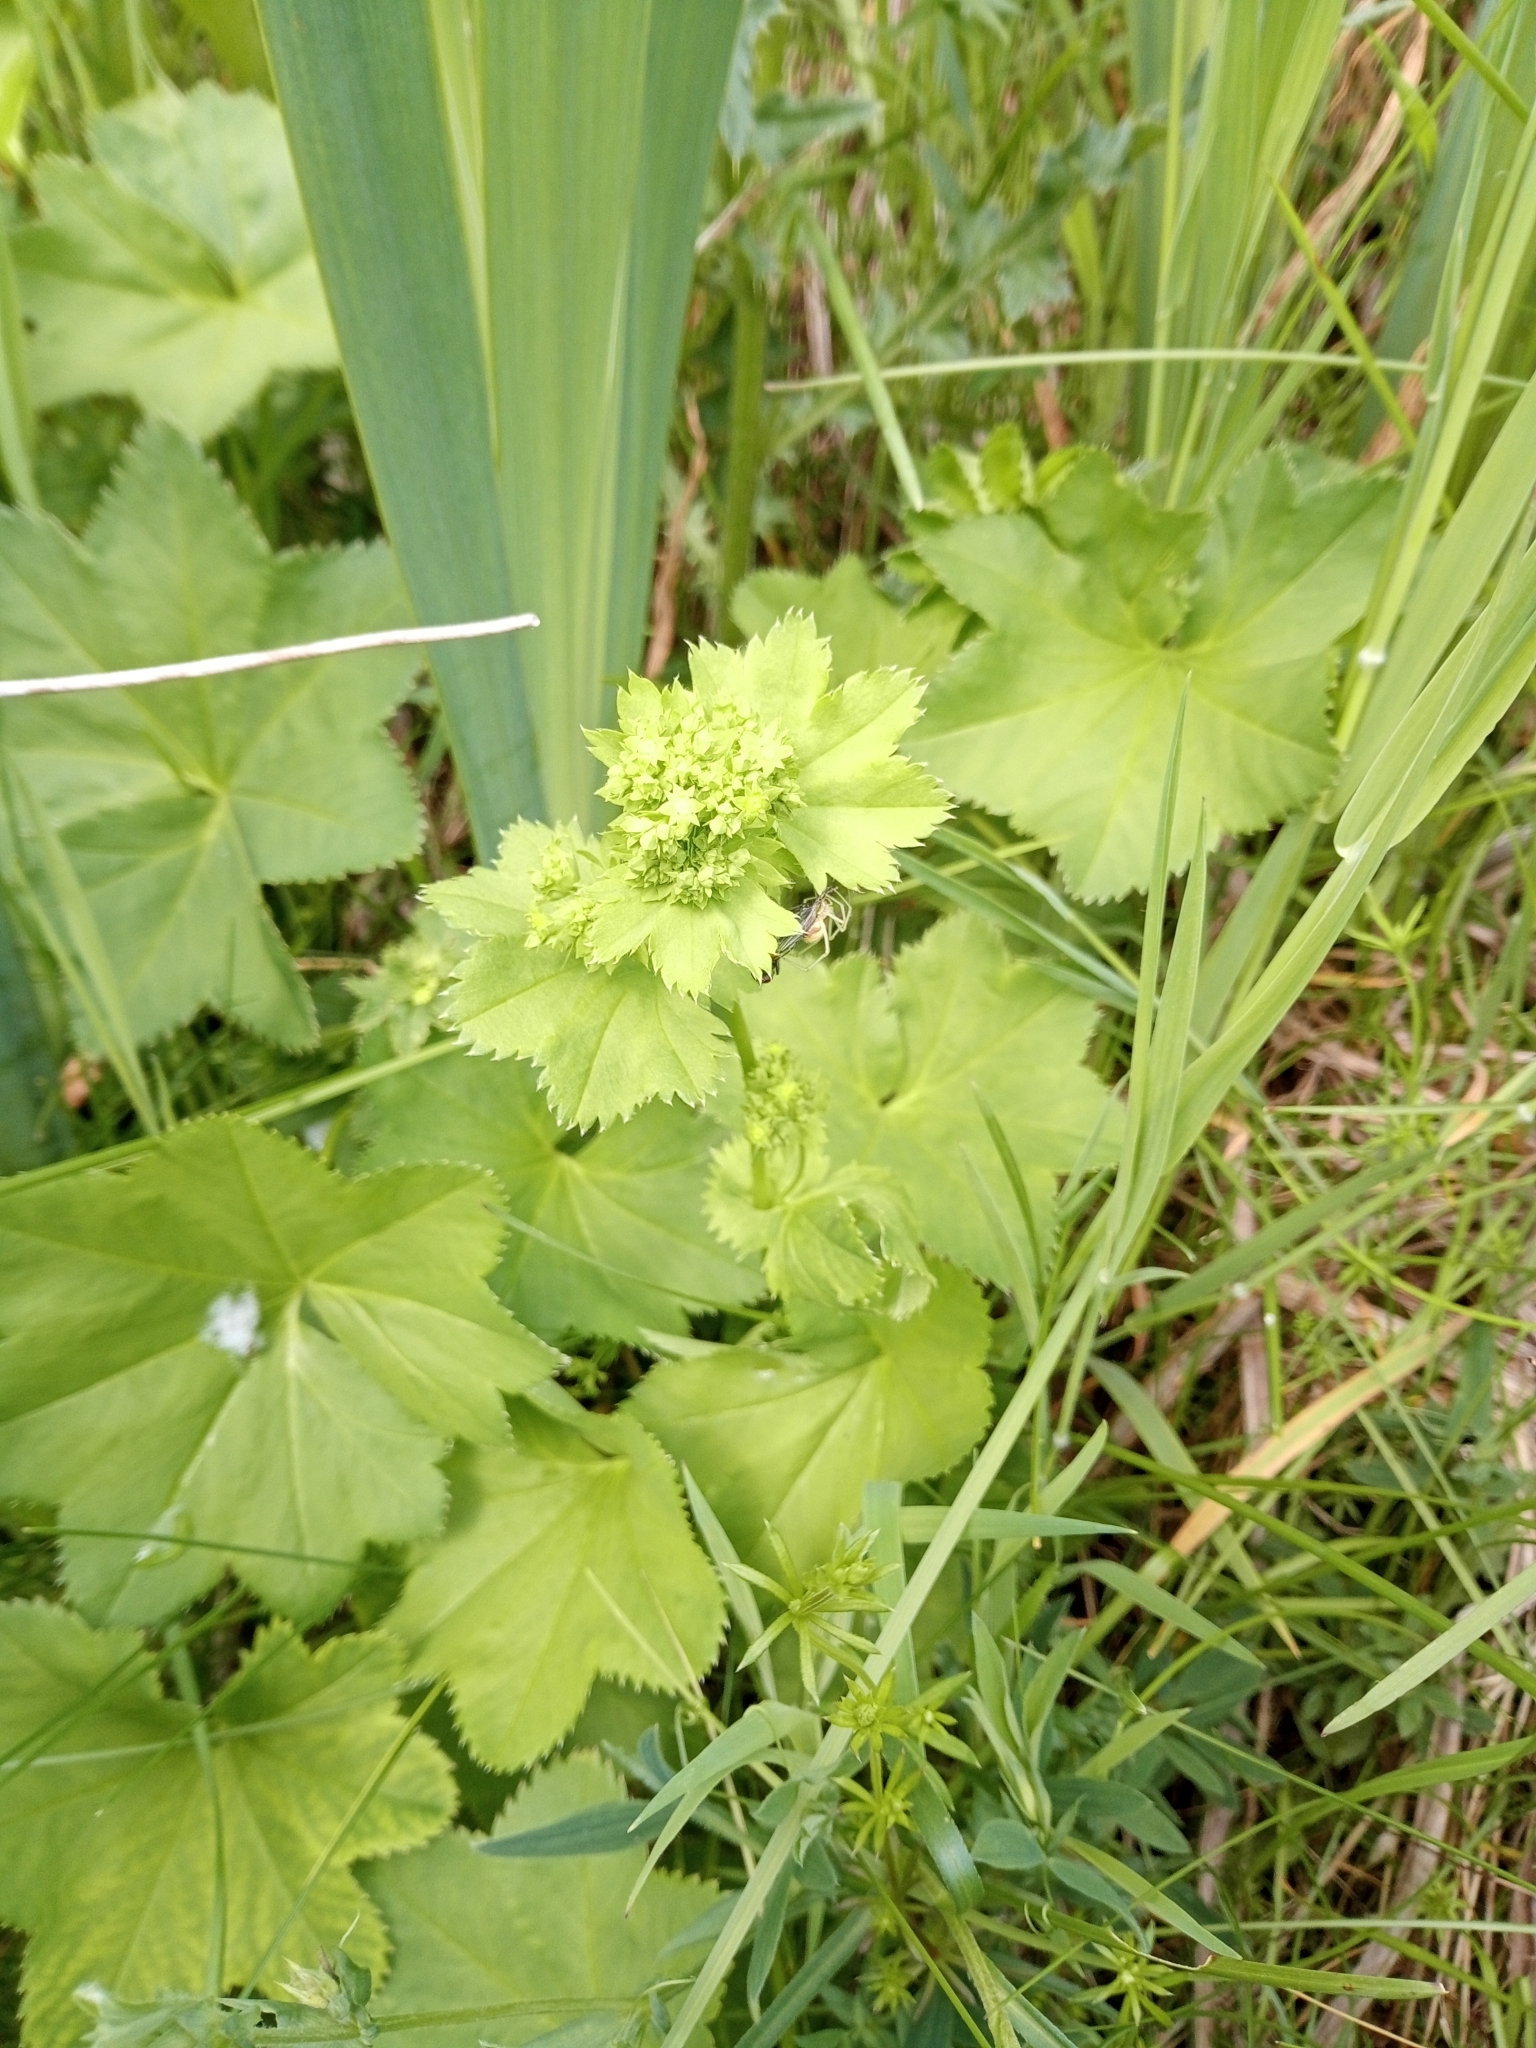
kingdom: Plantae
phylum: Tracheophyta
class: Magnoliopsida
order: Rosales
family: Rosaceae
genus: Alchemilla
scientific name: Alchemilla mollis
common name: Lady's-mantle
